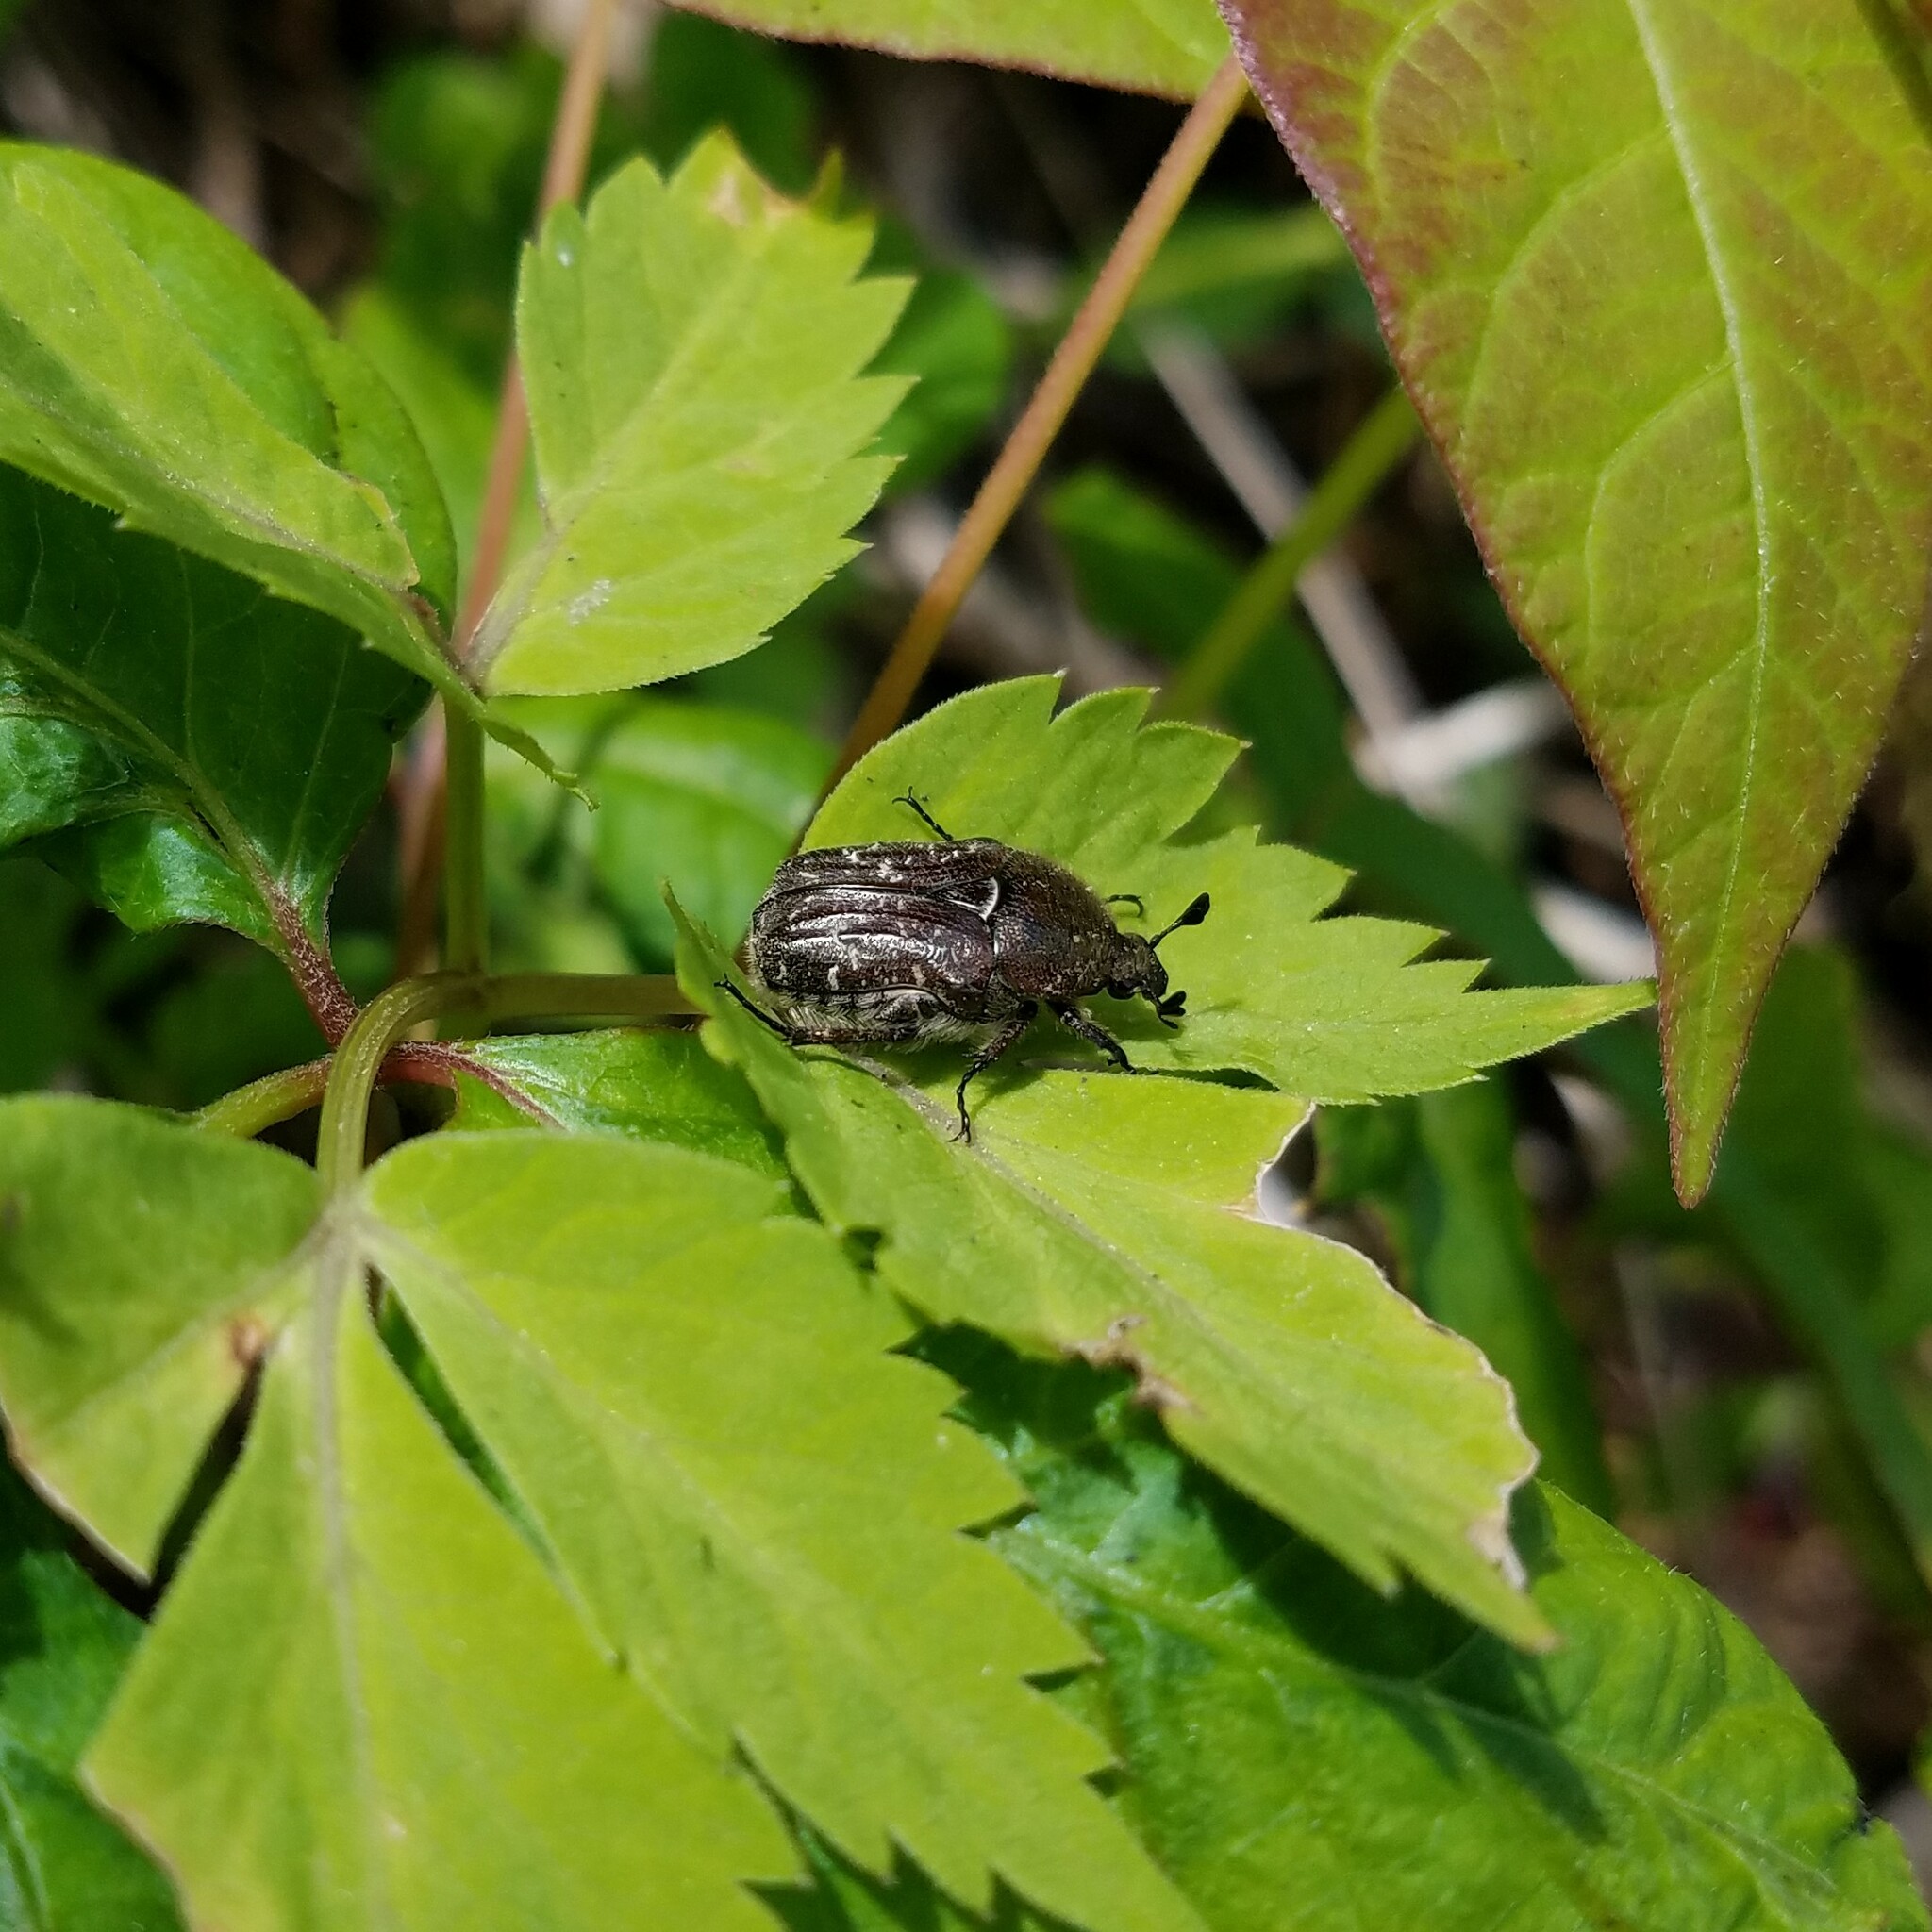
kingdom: Animalia
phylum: Arthropoda
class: Insecta
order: Coleoptera
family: Scarabaeidae
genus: Euphoria
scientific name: Euphoria sepulcralis
